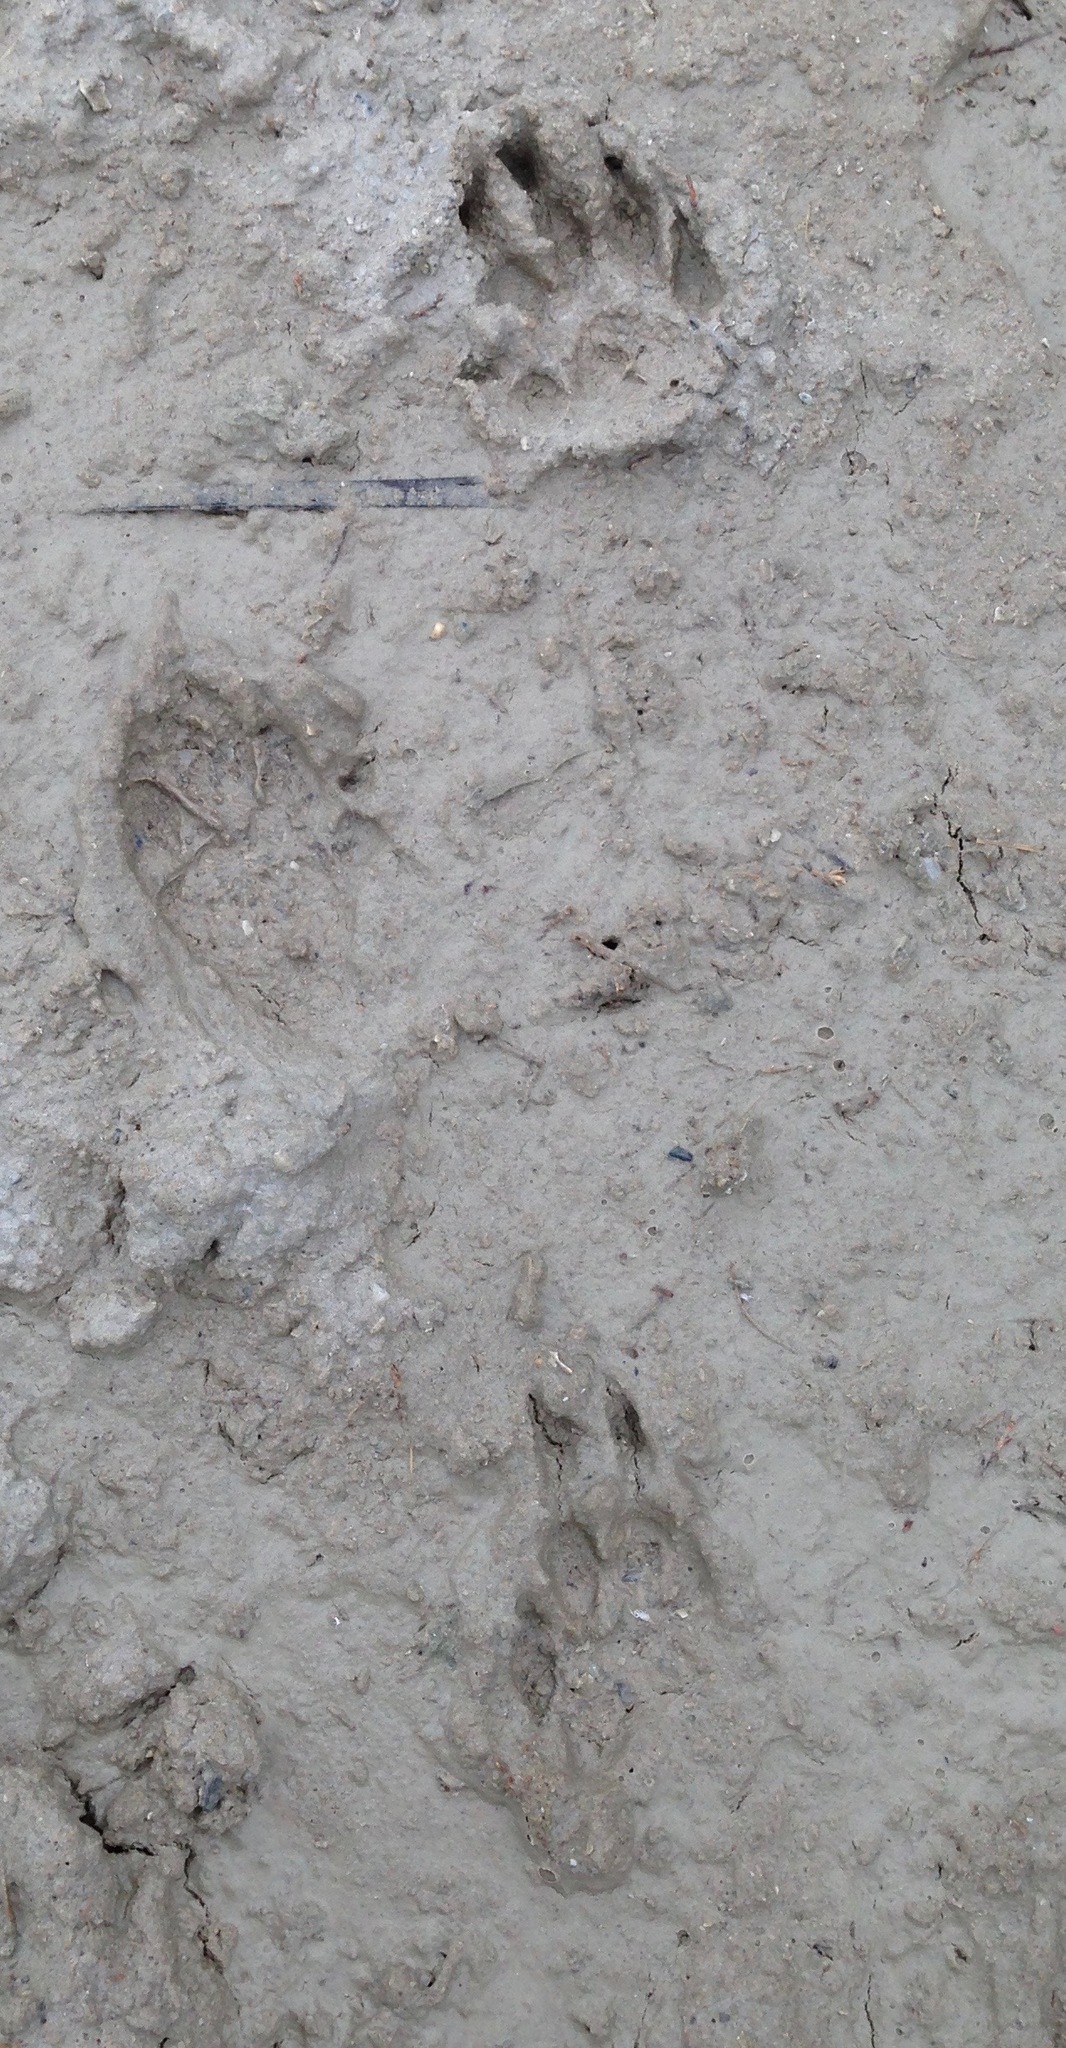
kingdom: Animalia
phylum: Chordata
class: Mammalia
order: Carnivora
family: Mephitidae
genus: Mephitis
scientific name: Mephitis mephitis
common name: Striped skunk
